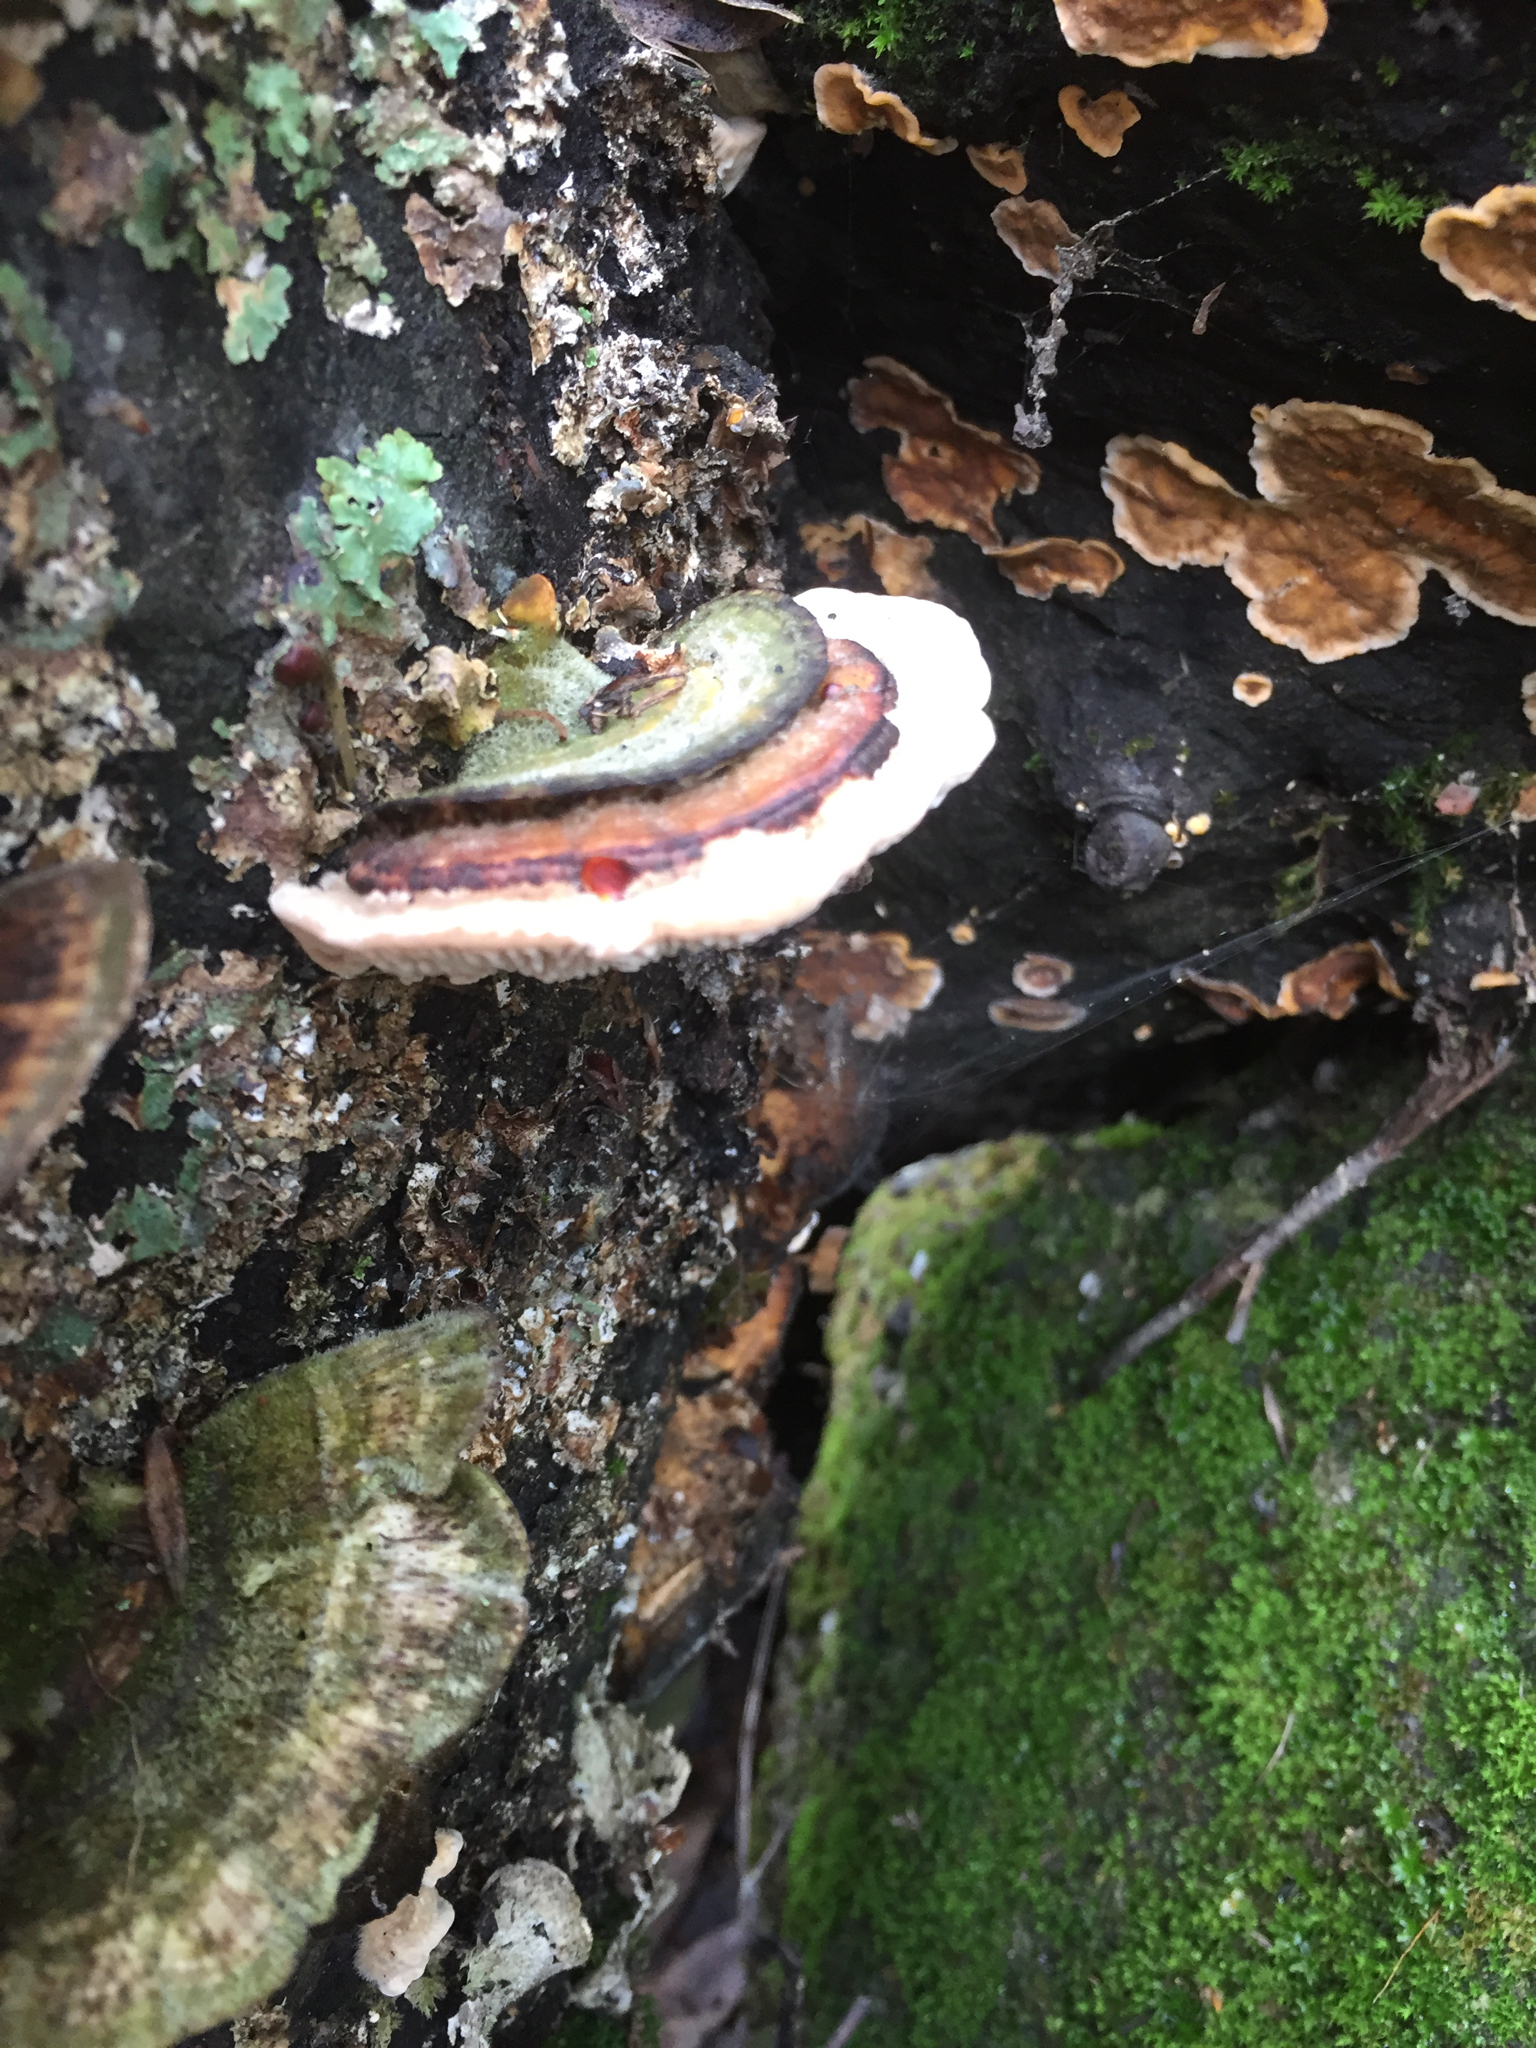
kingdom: Fungi
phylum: Basidiomycota
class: Agaricomycetes
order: Polyporales
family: Polyporaceae
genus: Lenzites
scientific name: Lenzites betulinus
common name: Birch mazegill
